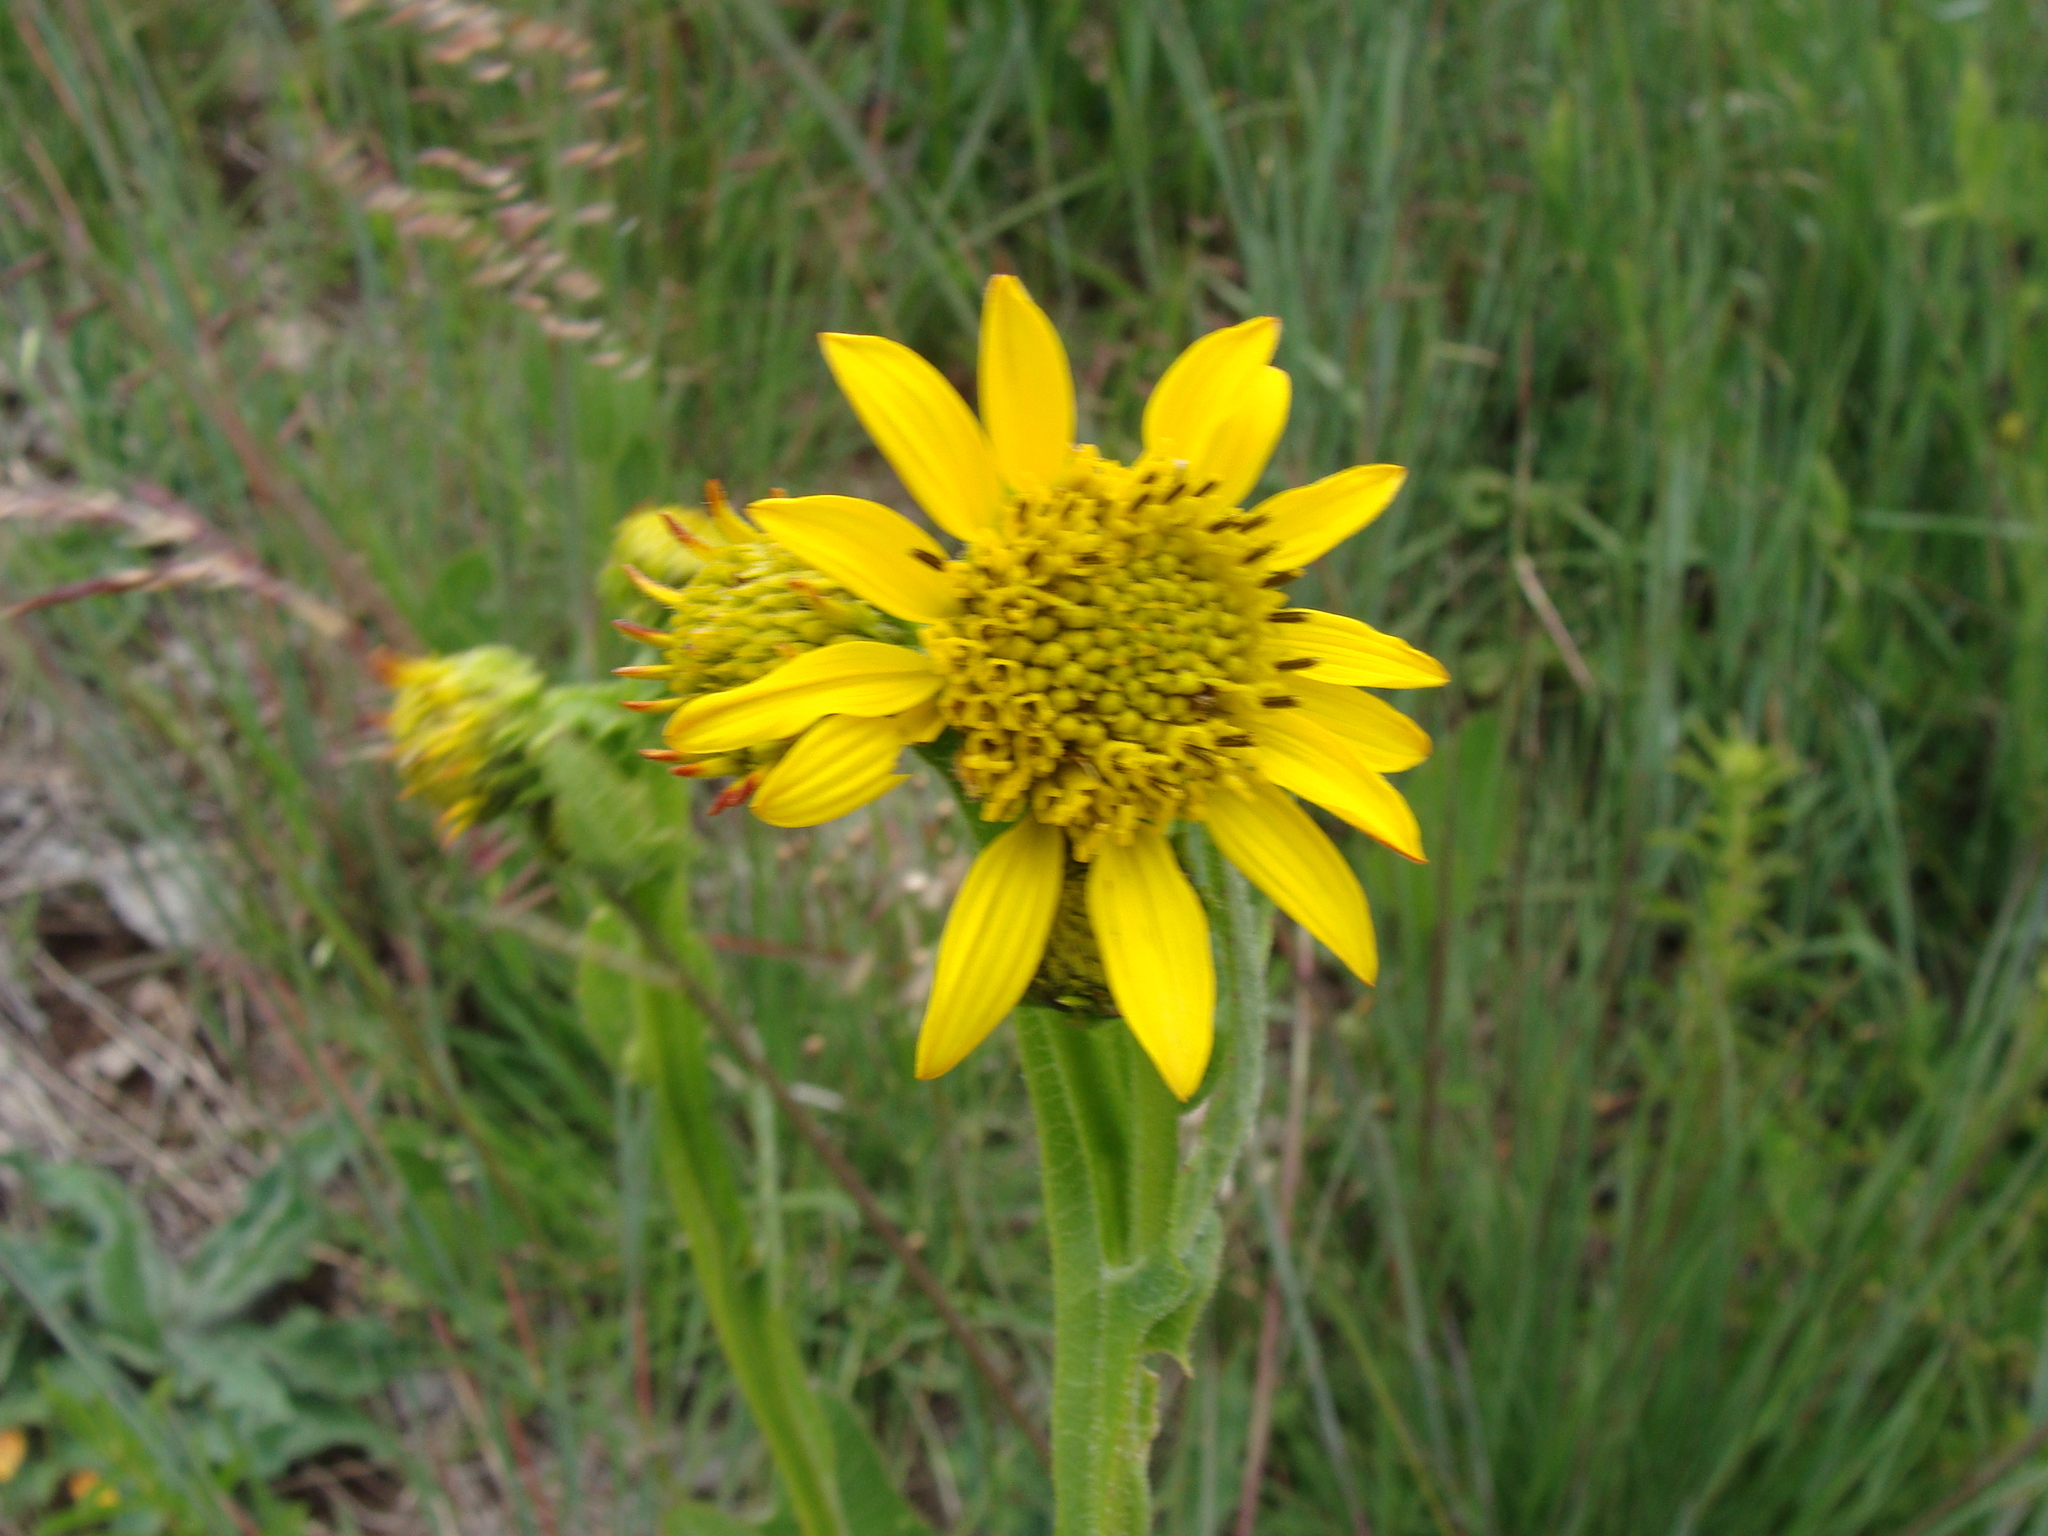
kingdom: Plantae
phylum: Tracheophyta
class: Magnoliopsida
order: Asterales
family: Asteraceae
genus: Verbesina
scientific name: Verbesina tetraptera
